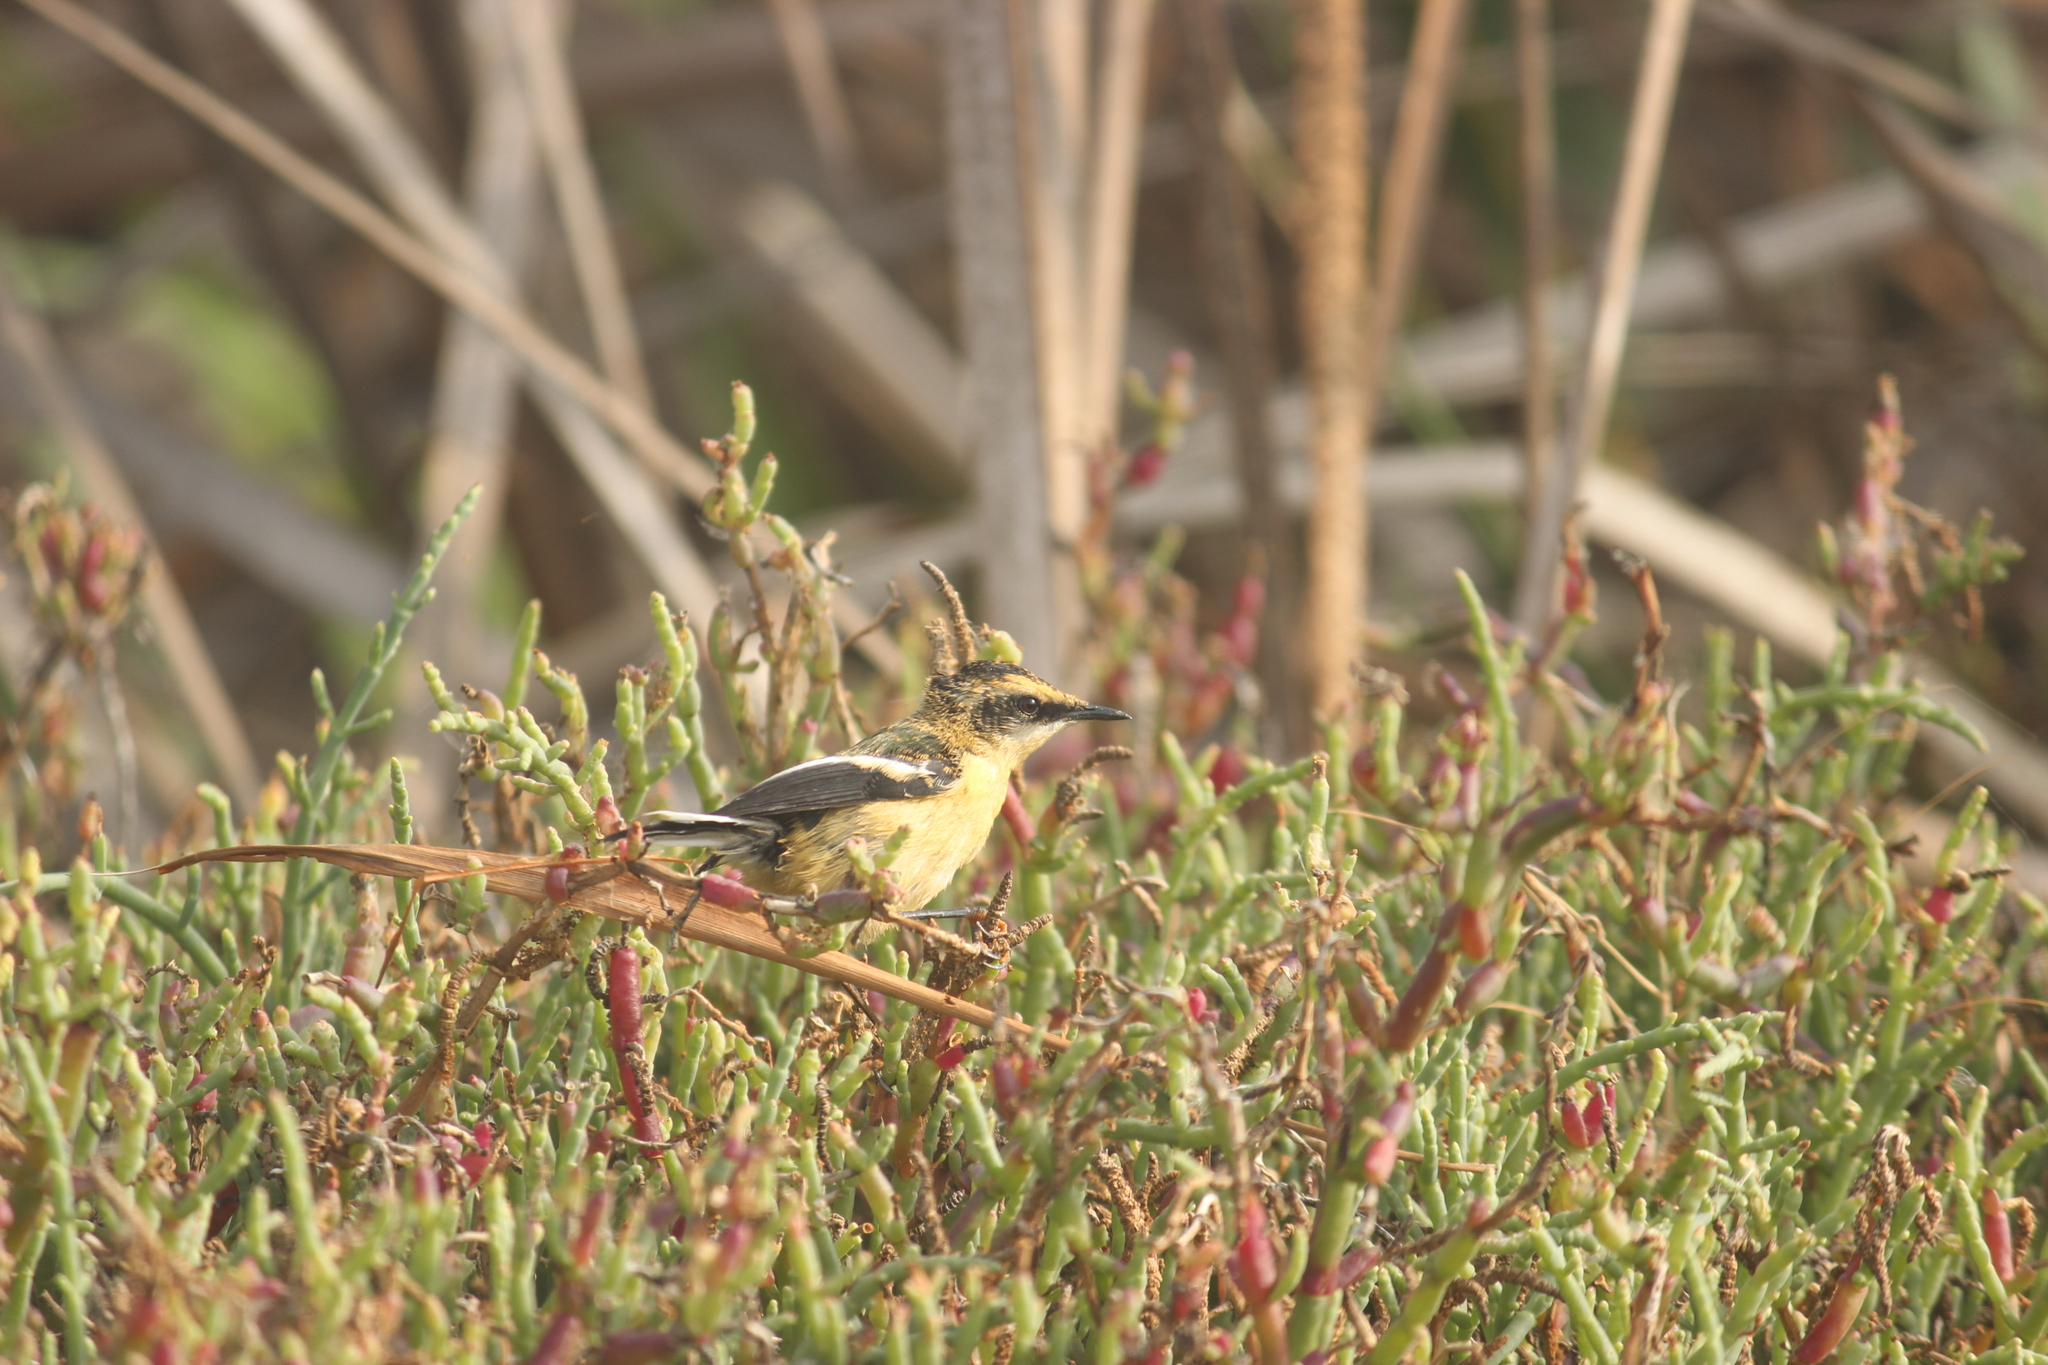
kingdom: Animalia
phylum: Chordata
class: Aves
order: Passeriformes
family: Tyrannidae
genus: Tachuris
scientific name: Tachuris rubrigastra
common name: Many-colored rush tyrant
